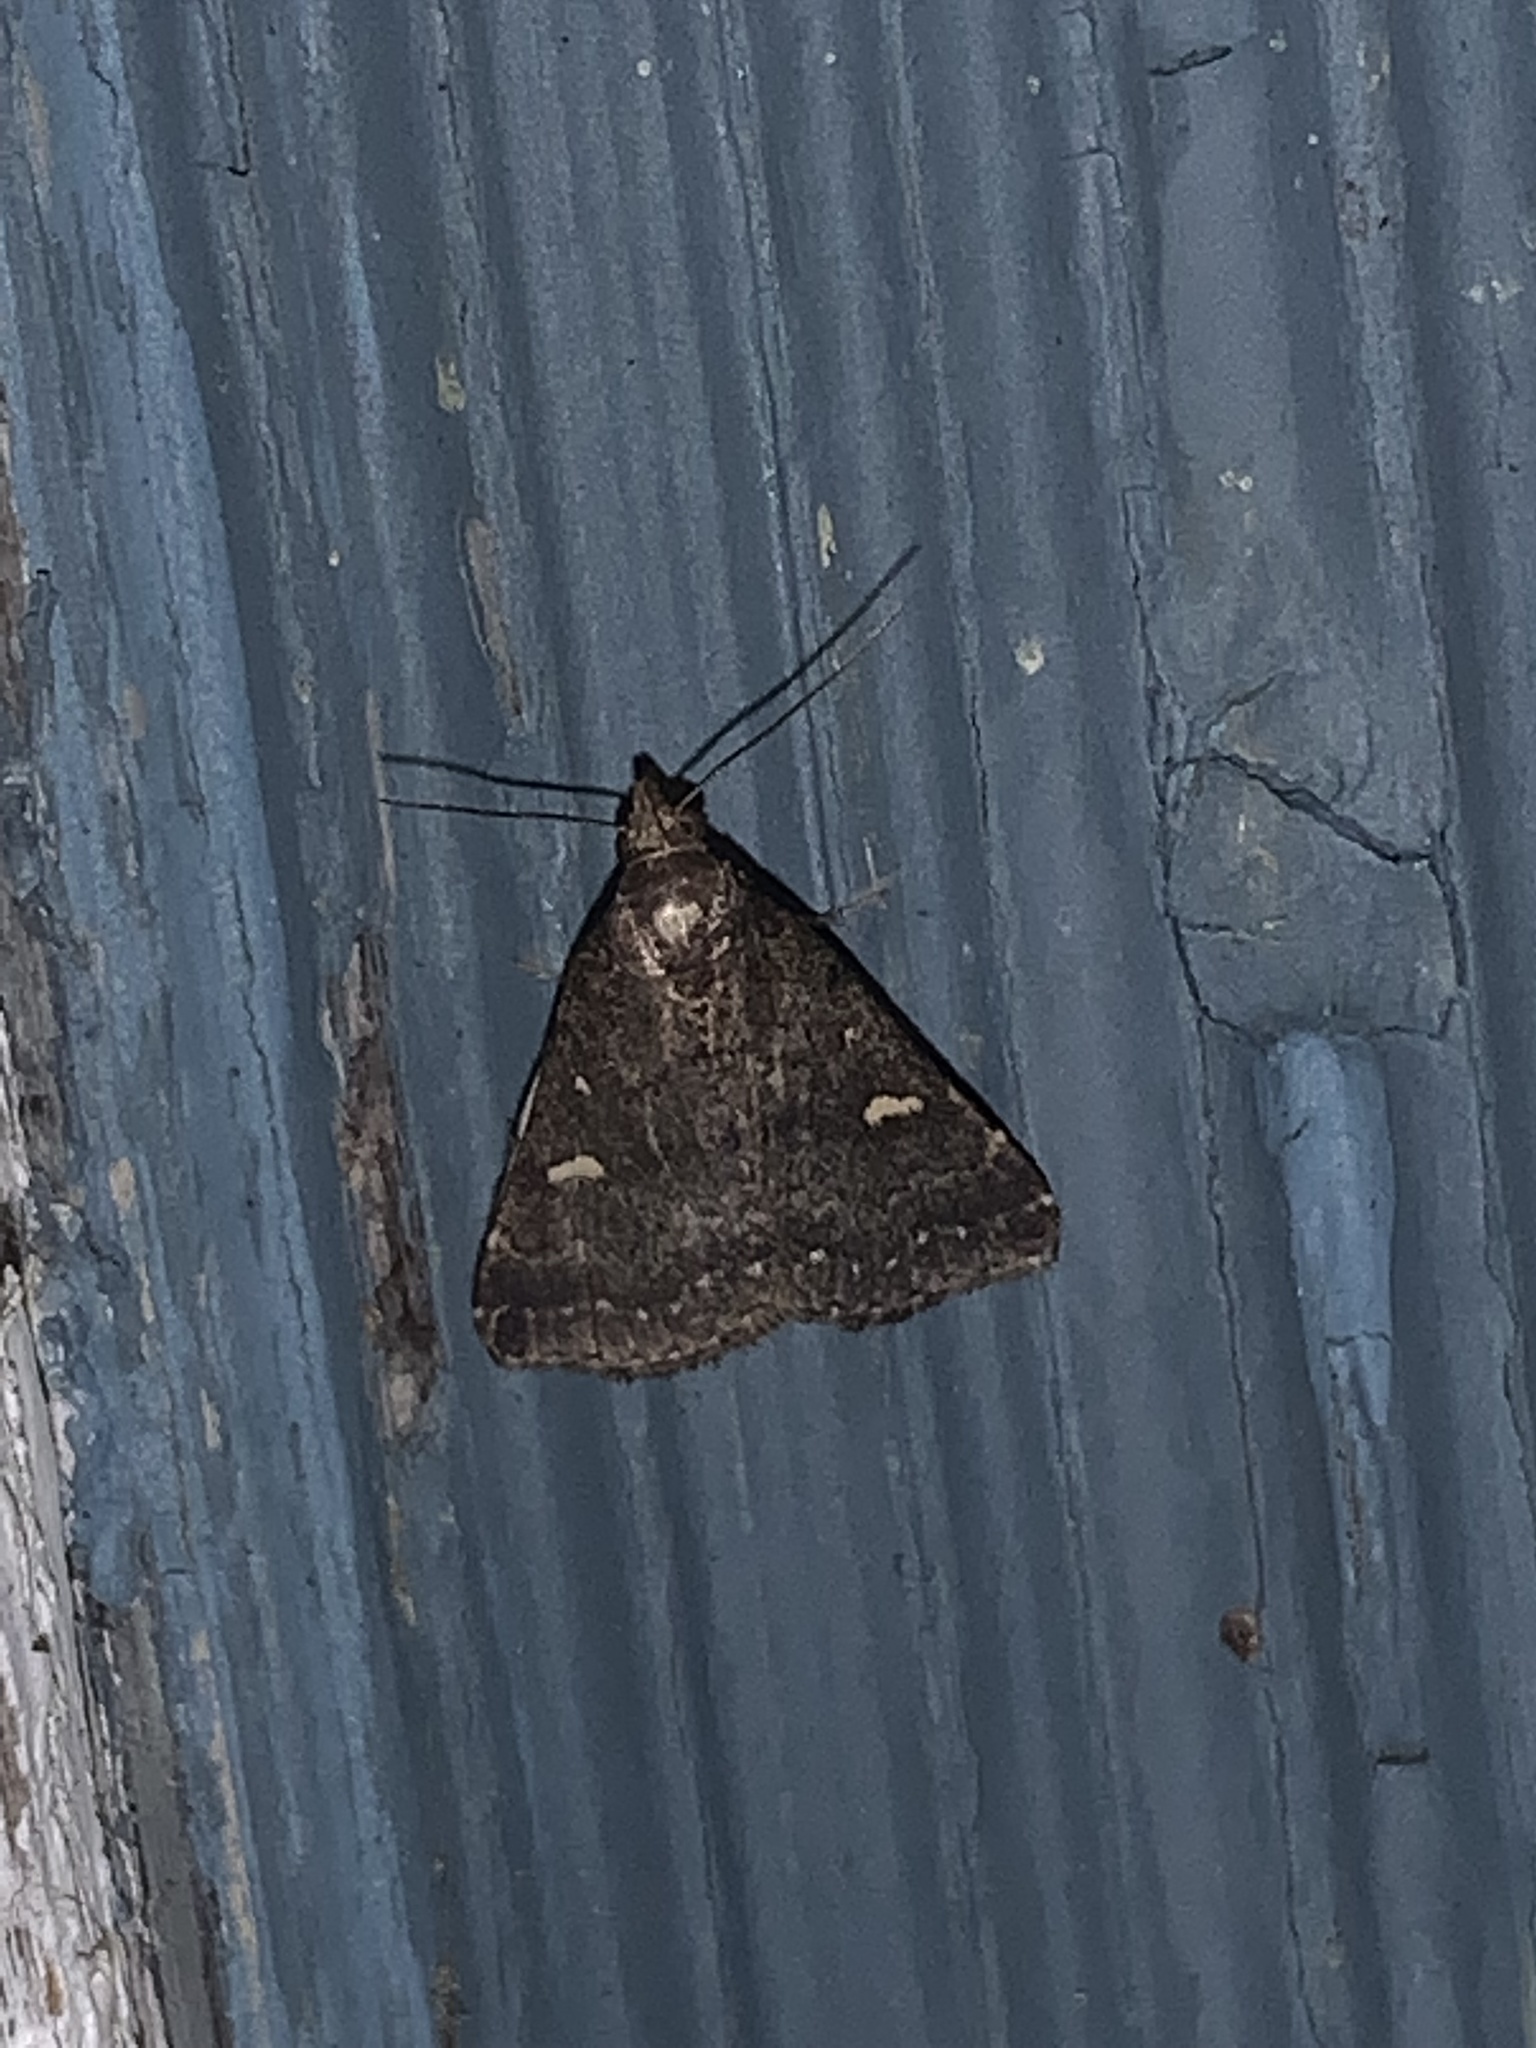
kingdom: Animalia
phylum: Arthropoda
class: Insecta
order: Lepidoptera
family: Erebidae
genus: Tetanolita
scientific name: Tetanolita mynesalis
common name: Smoky tetanolita moth
